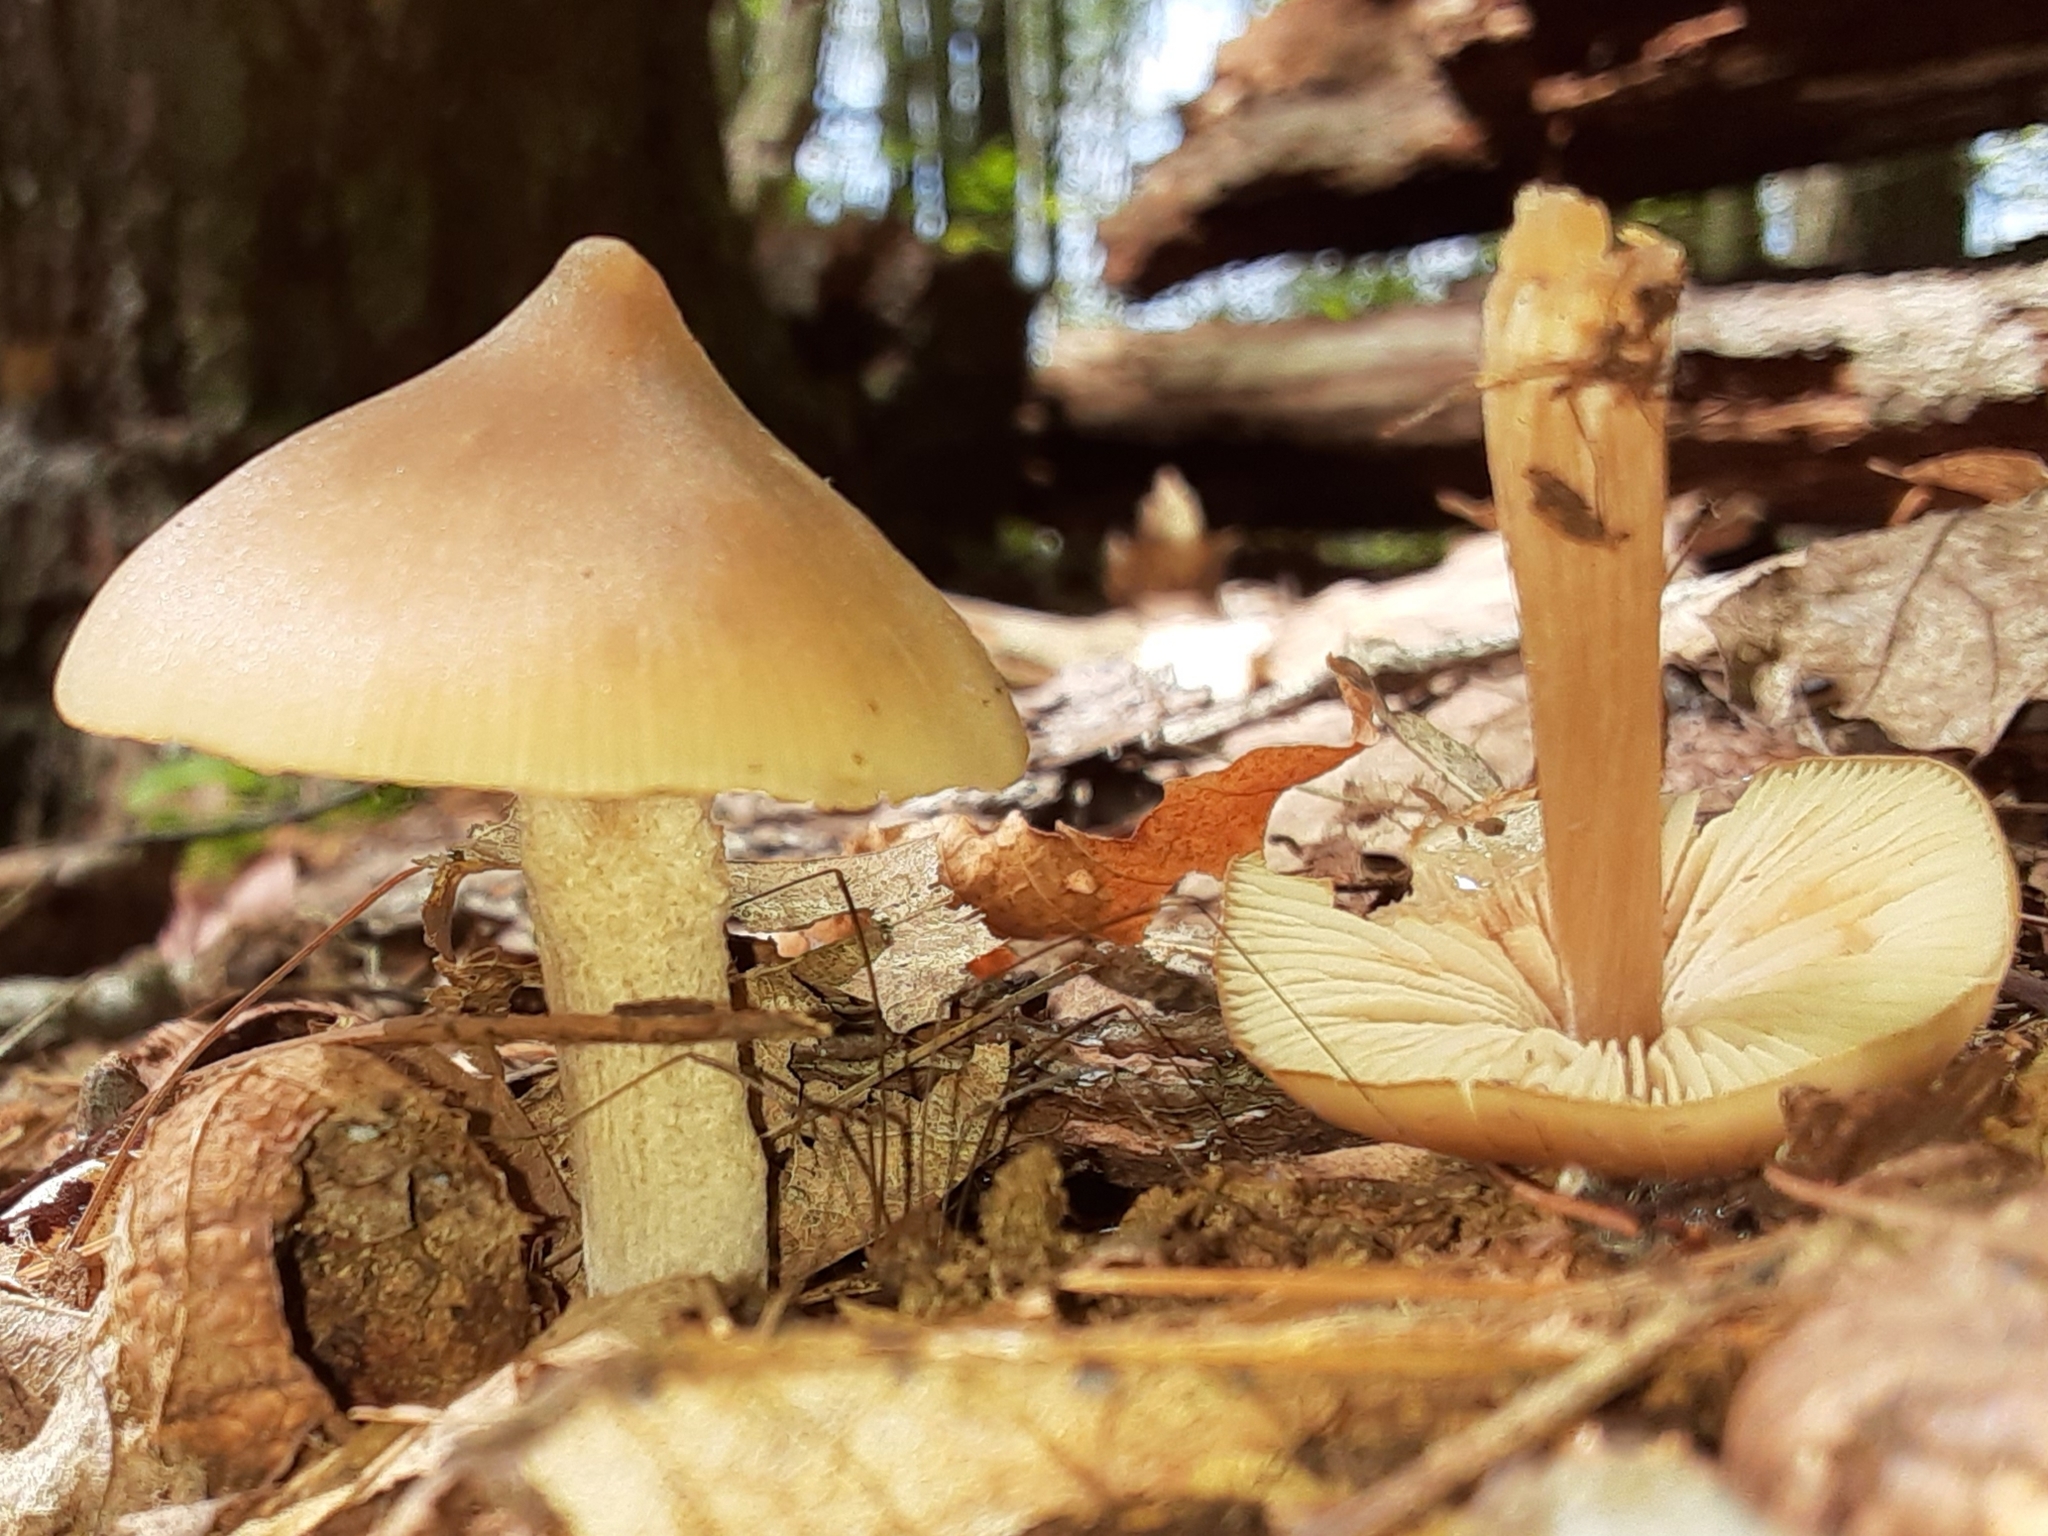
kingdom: Fungi
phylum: Basidiomycota
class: Agaricomycetes
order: Agaricales
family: Entolomataceae
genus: Entoloma
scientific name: Entoloma strictius
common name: Straight-stalked entoloma
